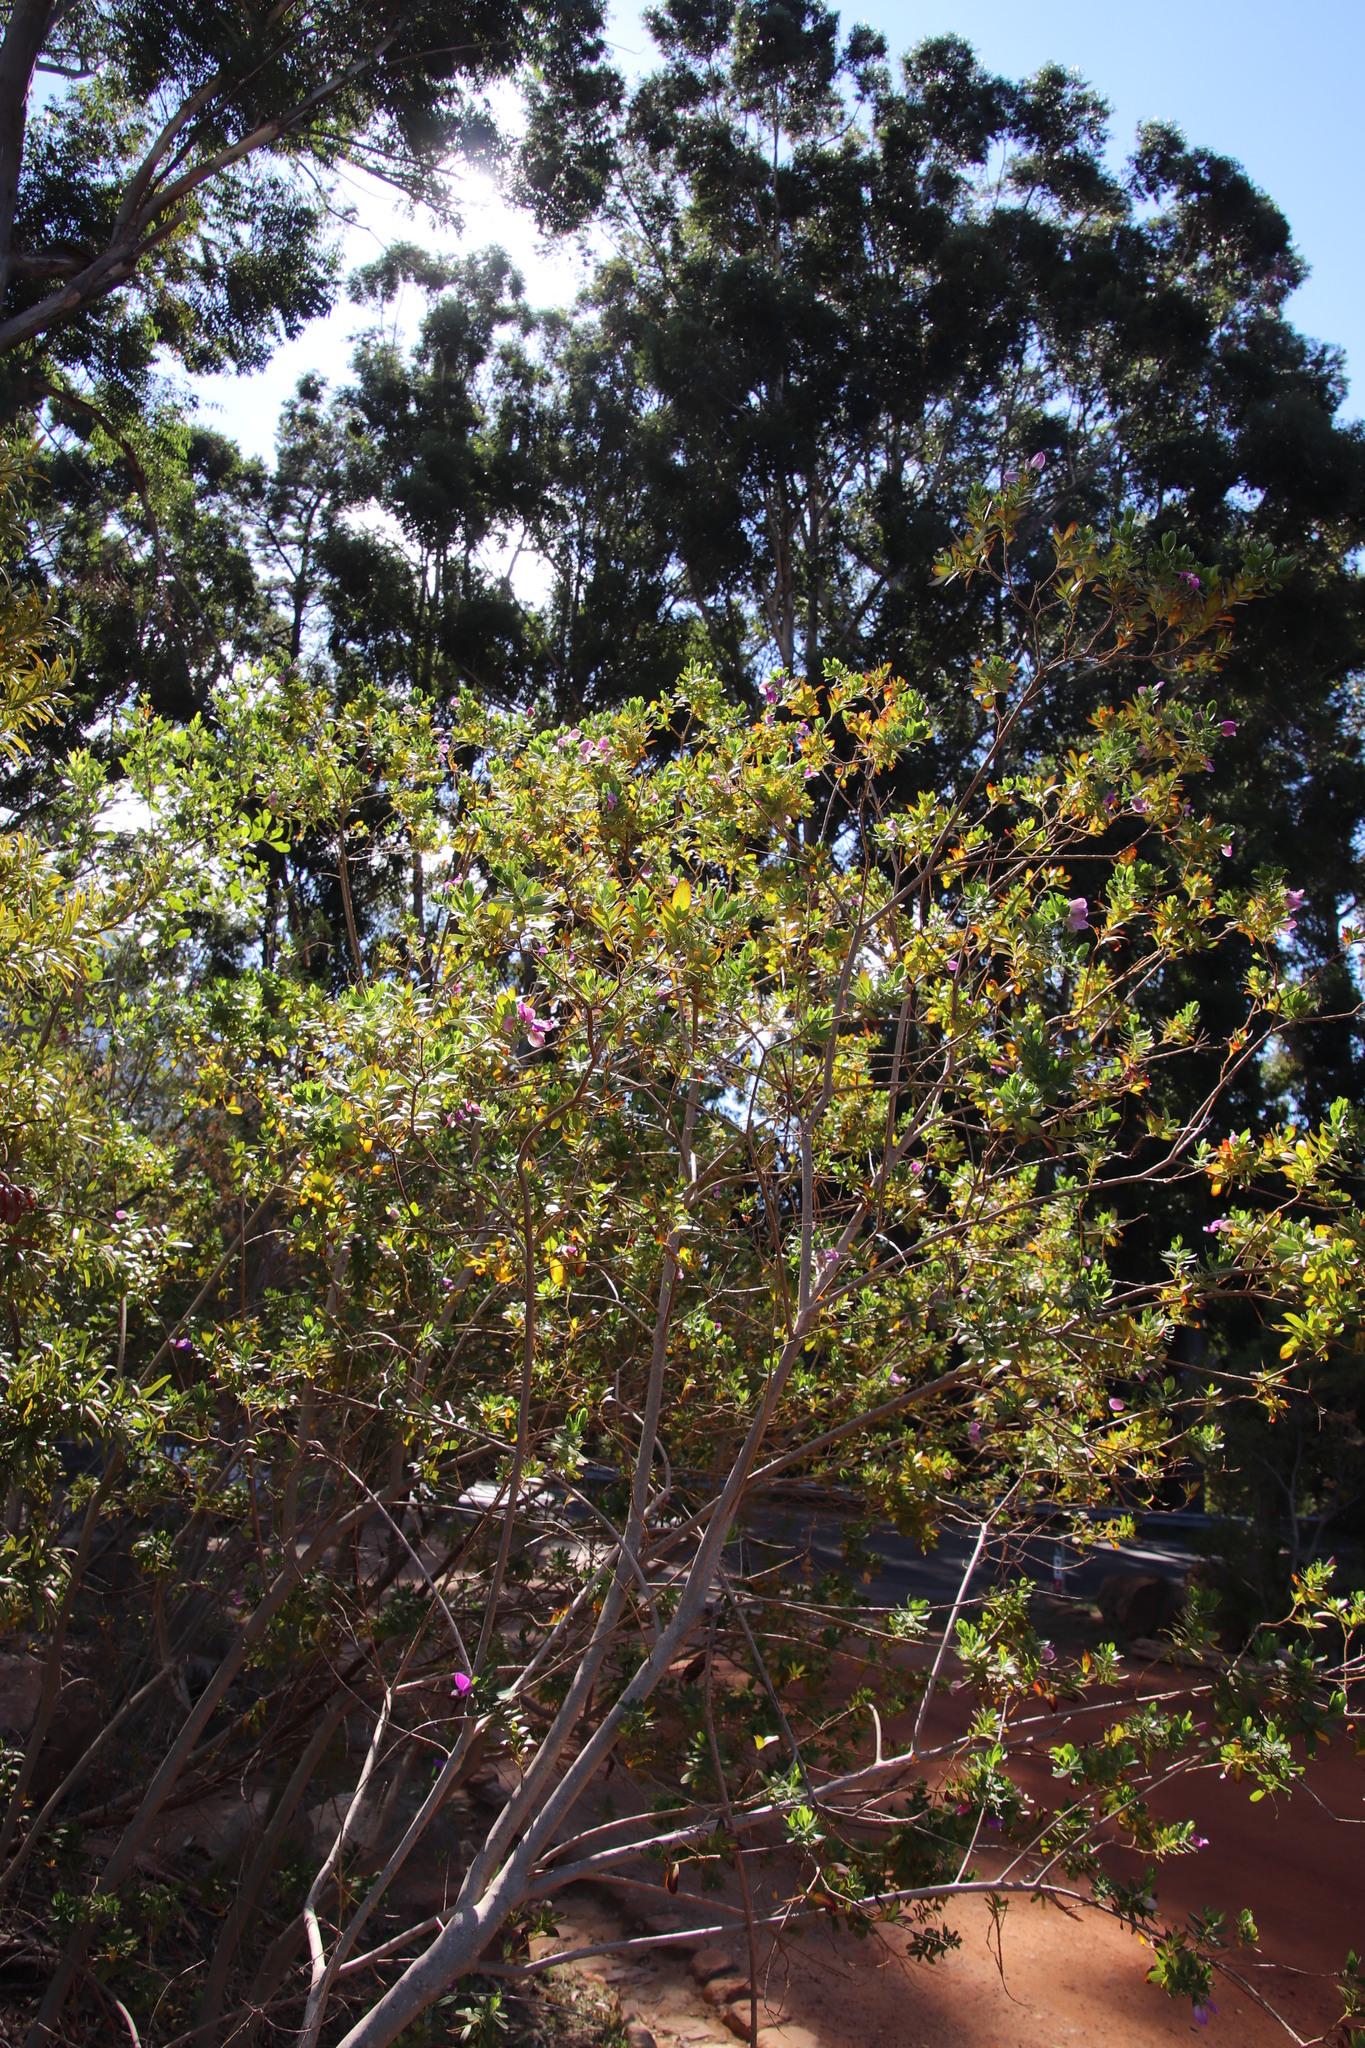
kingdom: Plantae
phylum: Tracheophyta
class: Magnoliopsida
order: Fabales
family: Polygalaceae
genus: Polygala
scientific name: Polygala myrtifolia
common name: Myrtle-leaf milkwort
